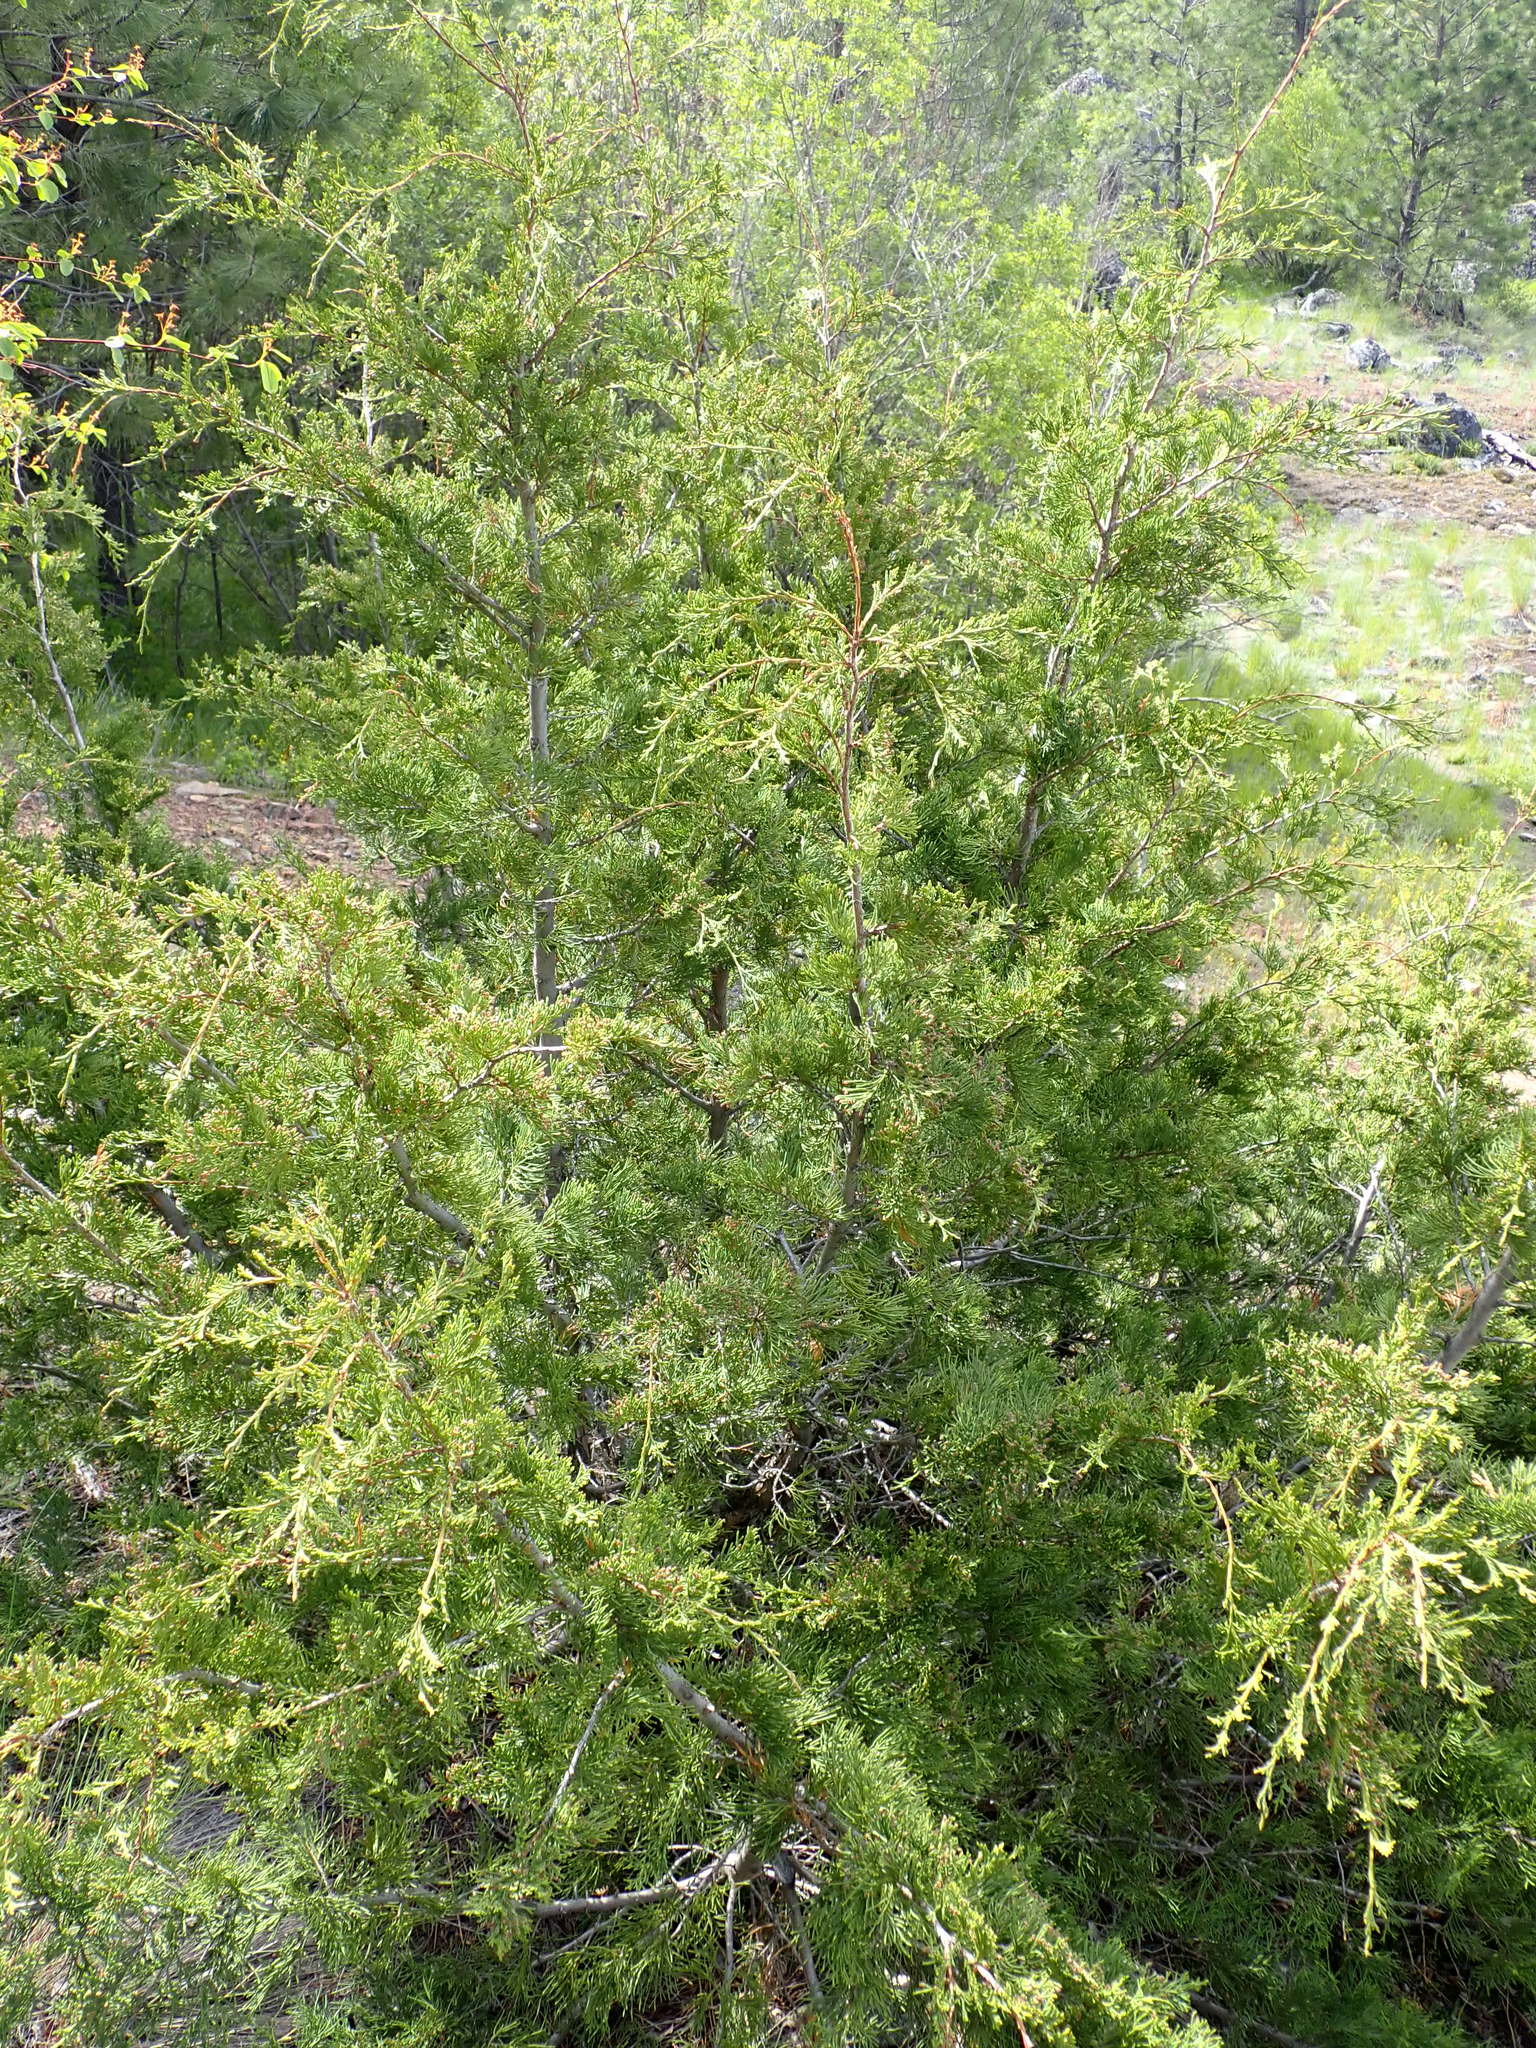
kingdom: Plantae
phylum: Tracheophyta
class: Pinopsida
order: Pinales
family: Cupressaceae
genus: Juniperus
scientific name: Juniperus scopulorum
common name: Rocky mountain juniper
